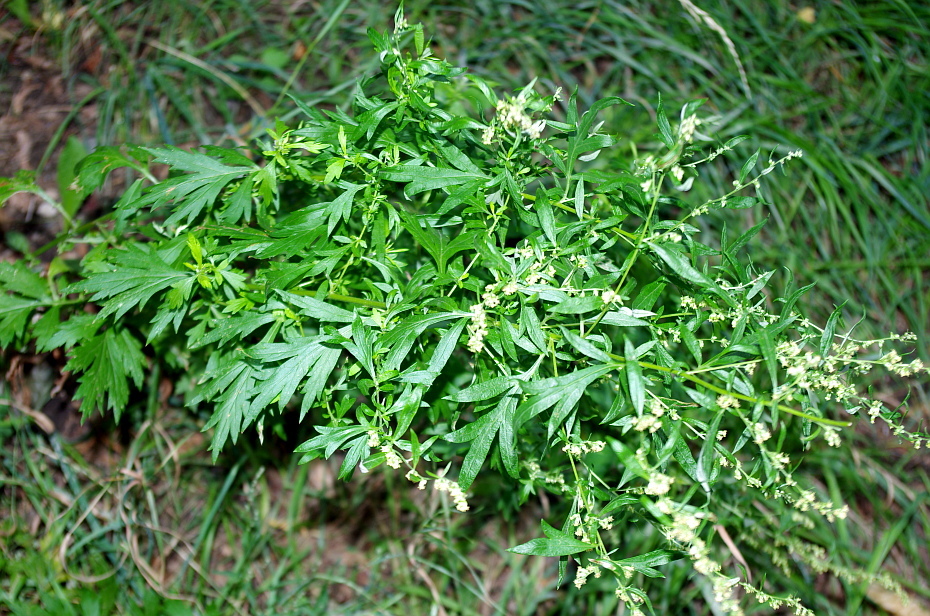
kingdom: Plantae
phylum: Tracheophyta
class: Magnoliopsida
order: Asterales
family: Asteraceae
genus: Artemisia
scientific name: Artemisia vulgaris
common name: Mugwort
